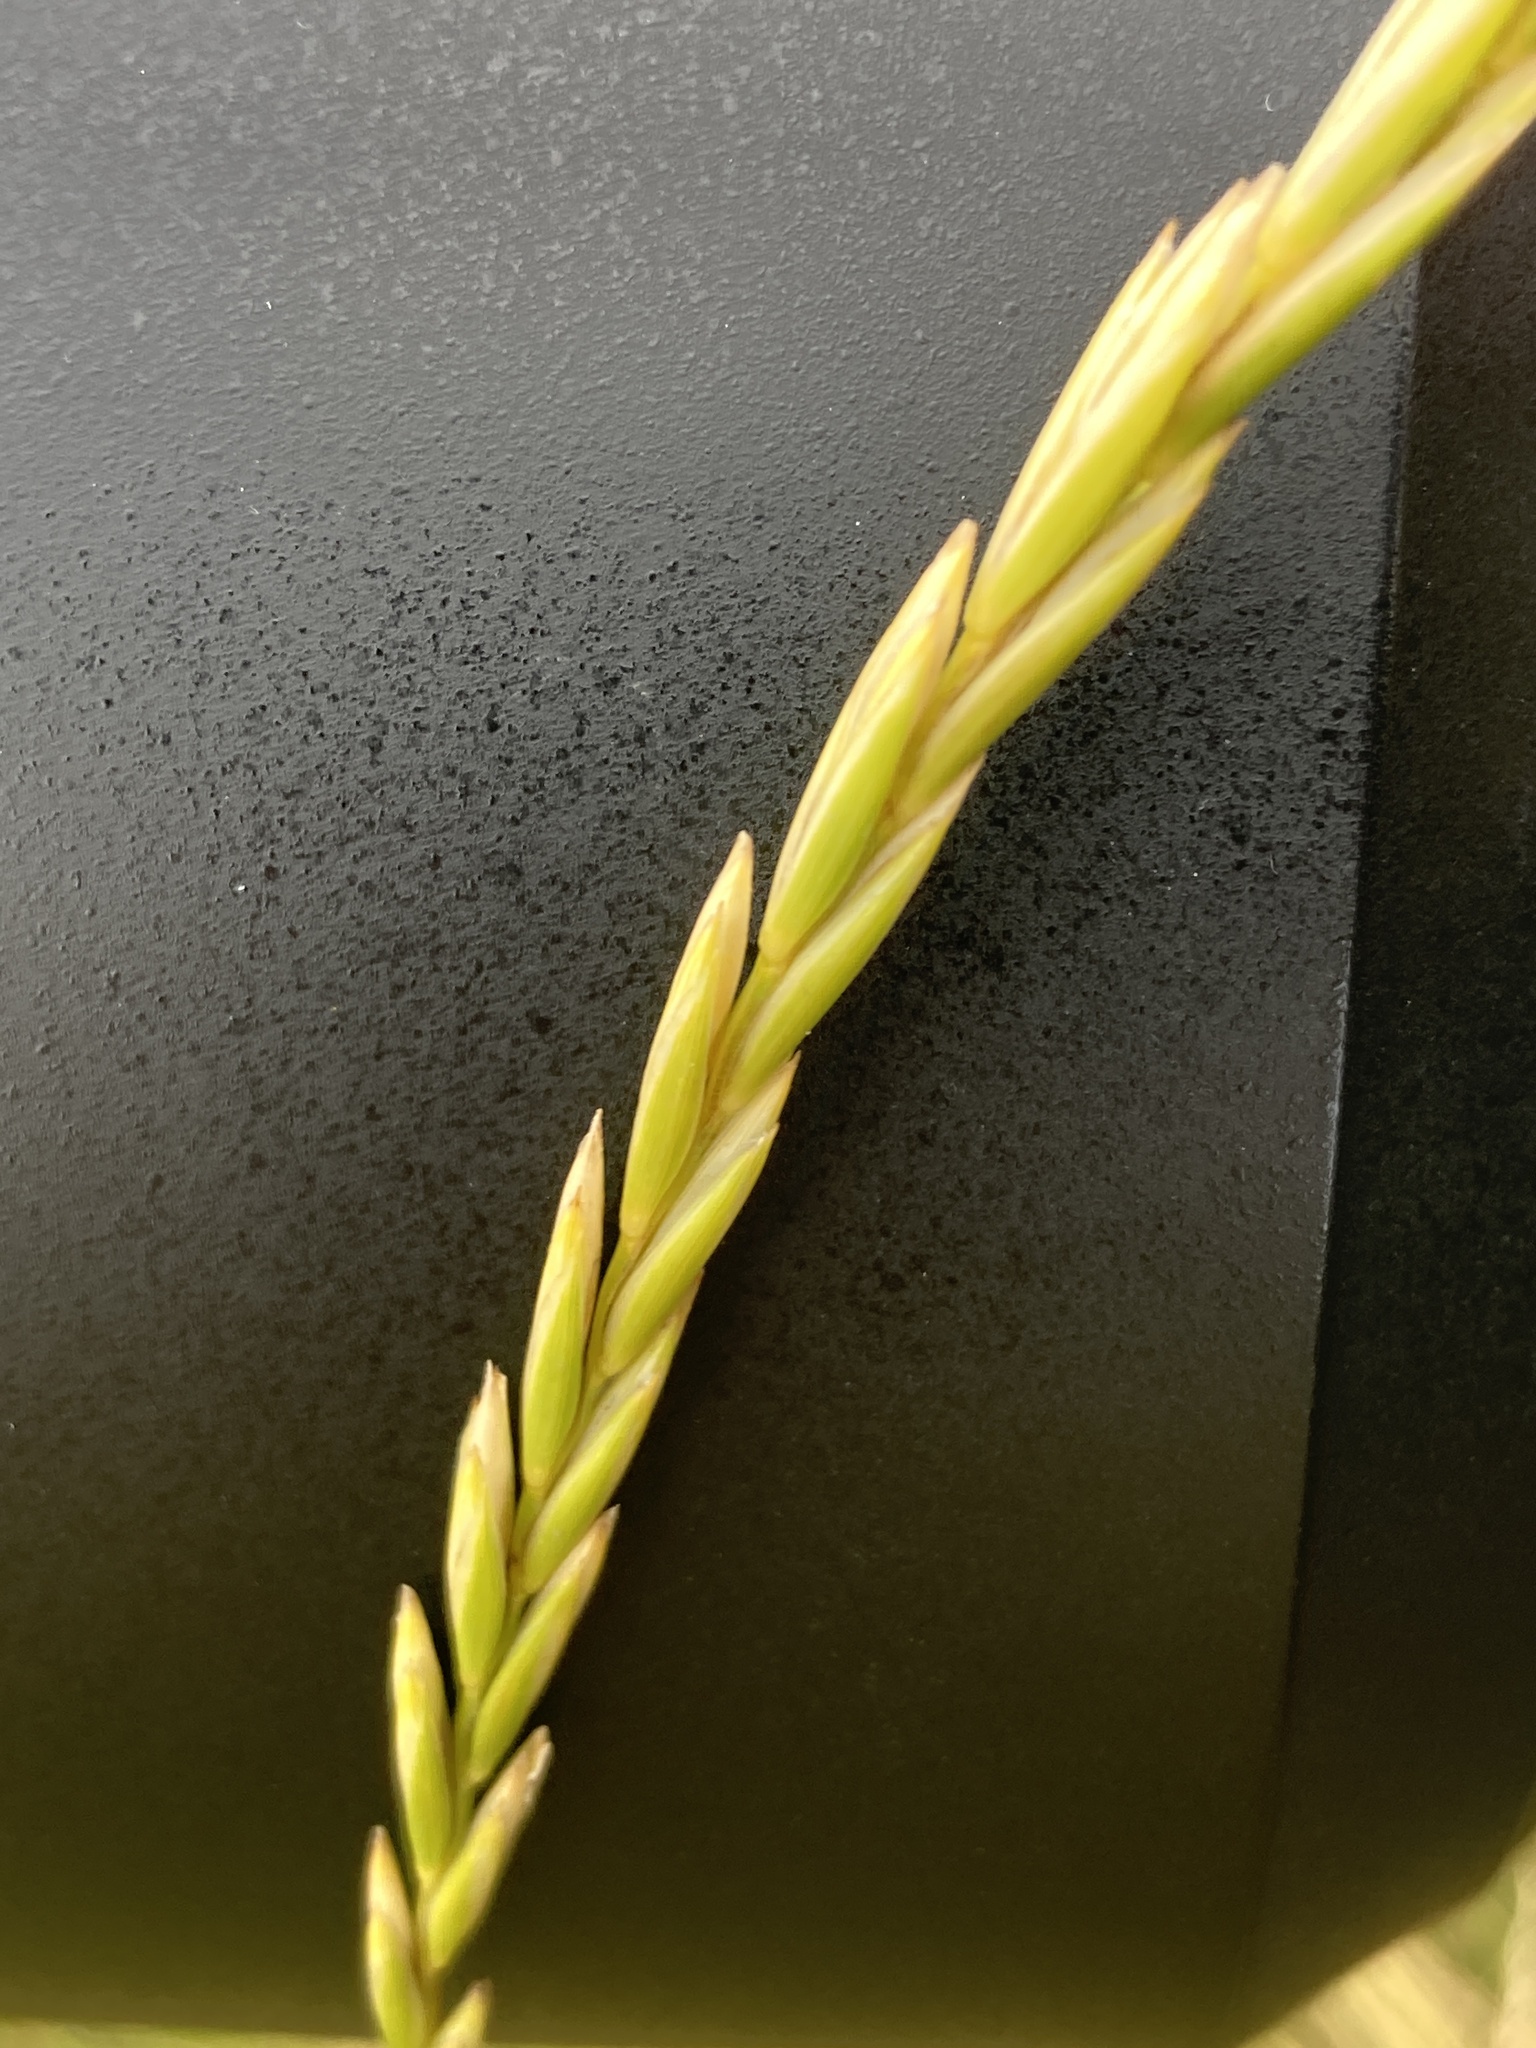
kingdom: Plantae
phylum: Tracheophyta
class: Liliopsida
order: Poales
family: Poaceae
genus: Elymus
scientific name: Elymus repens
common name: Quackgrass
